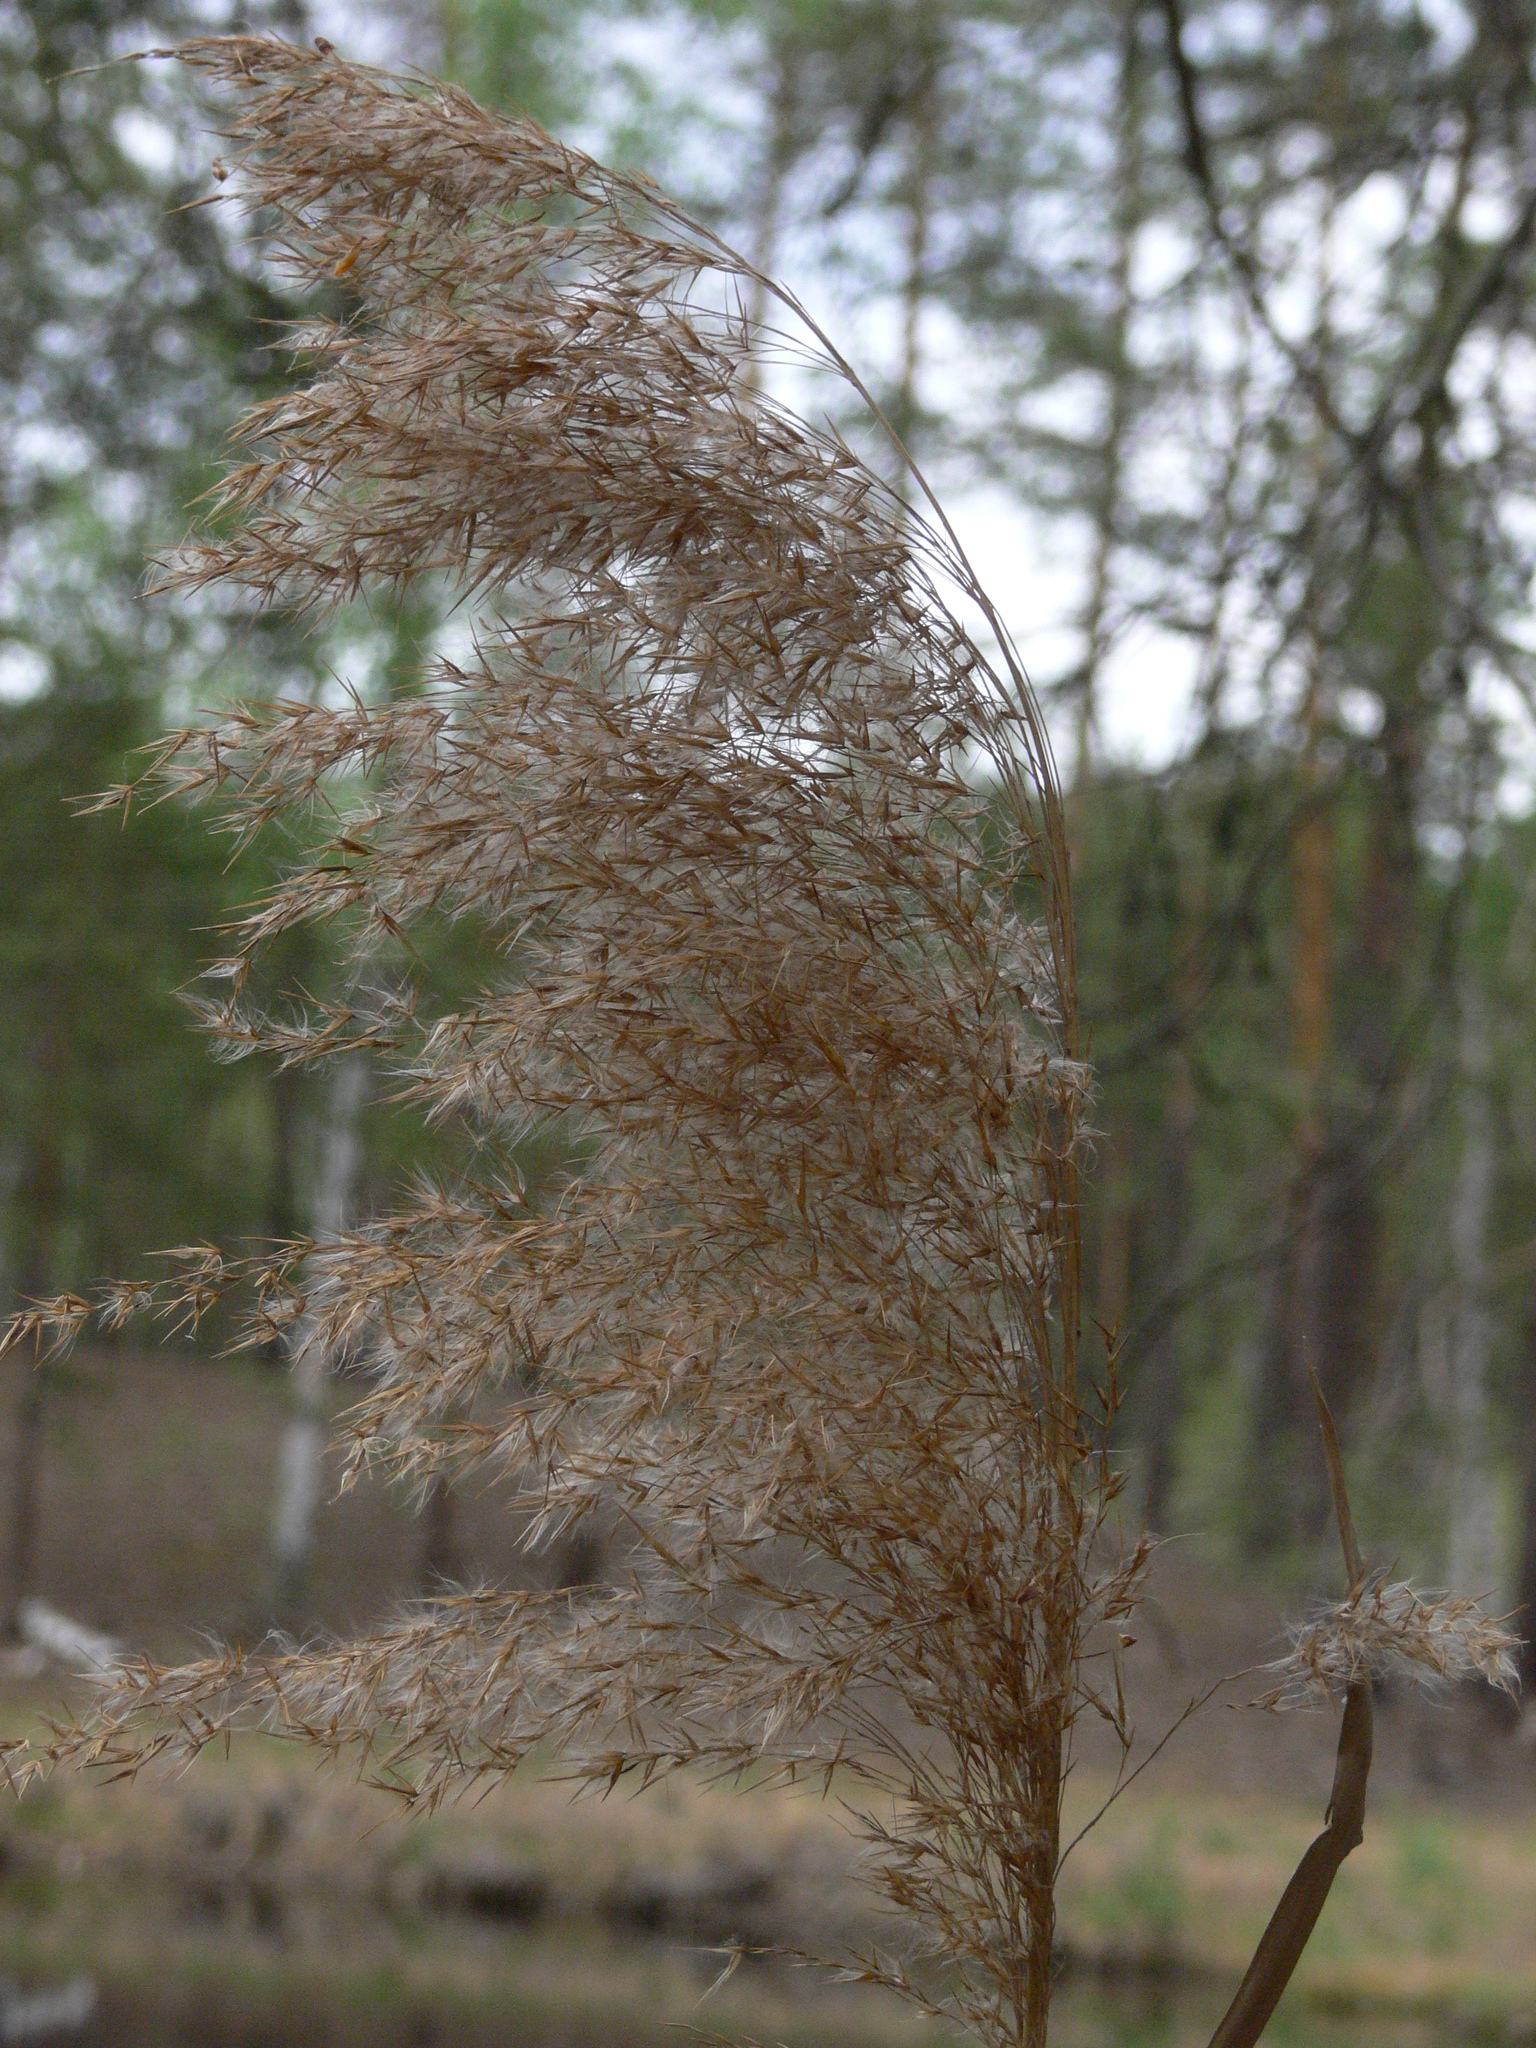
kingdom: Plantae
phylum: Tracheophyta
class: Liliopsida
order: Poales
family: Poaceae
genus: Phragmites
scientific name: Phragmites australis
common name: Common reed
